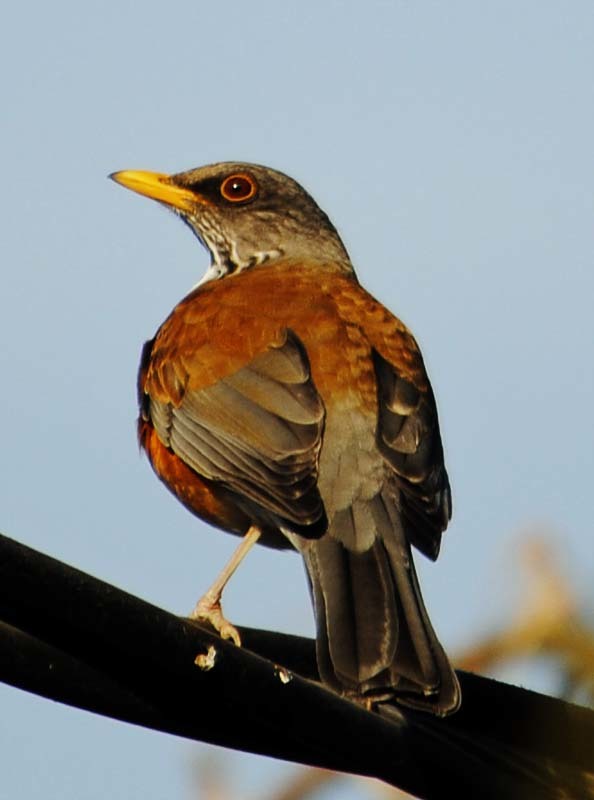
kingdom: Animalia
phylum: Chordata
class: Aves
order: Passeriformes
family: Turdidae
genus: Turdus
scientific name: Turdus rufopalliatus
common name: Rufous-backed robin
